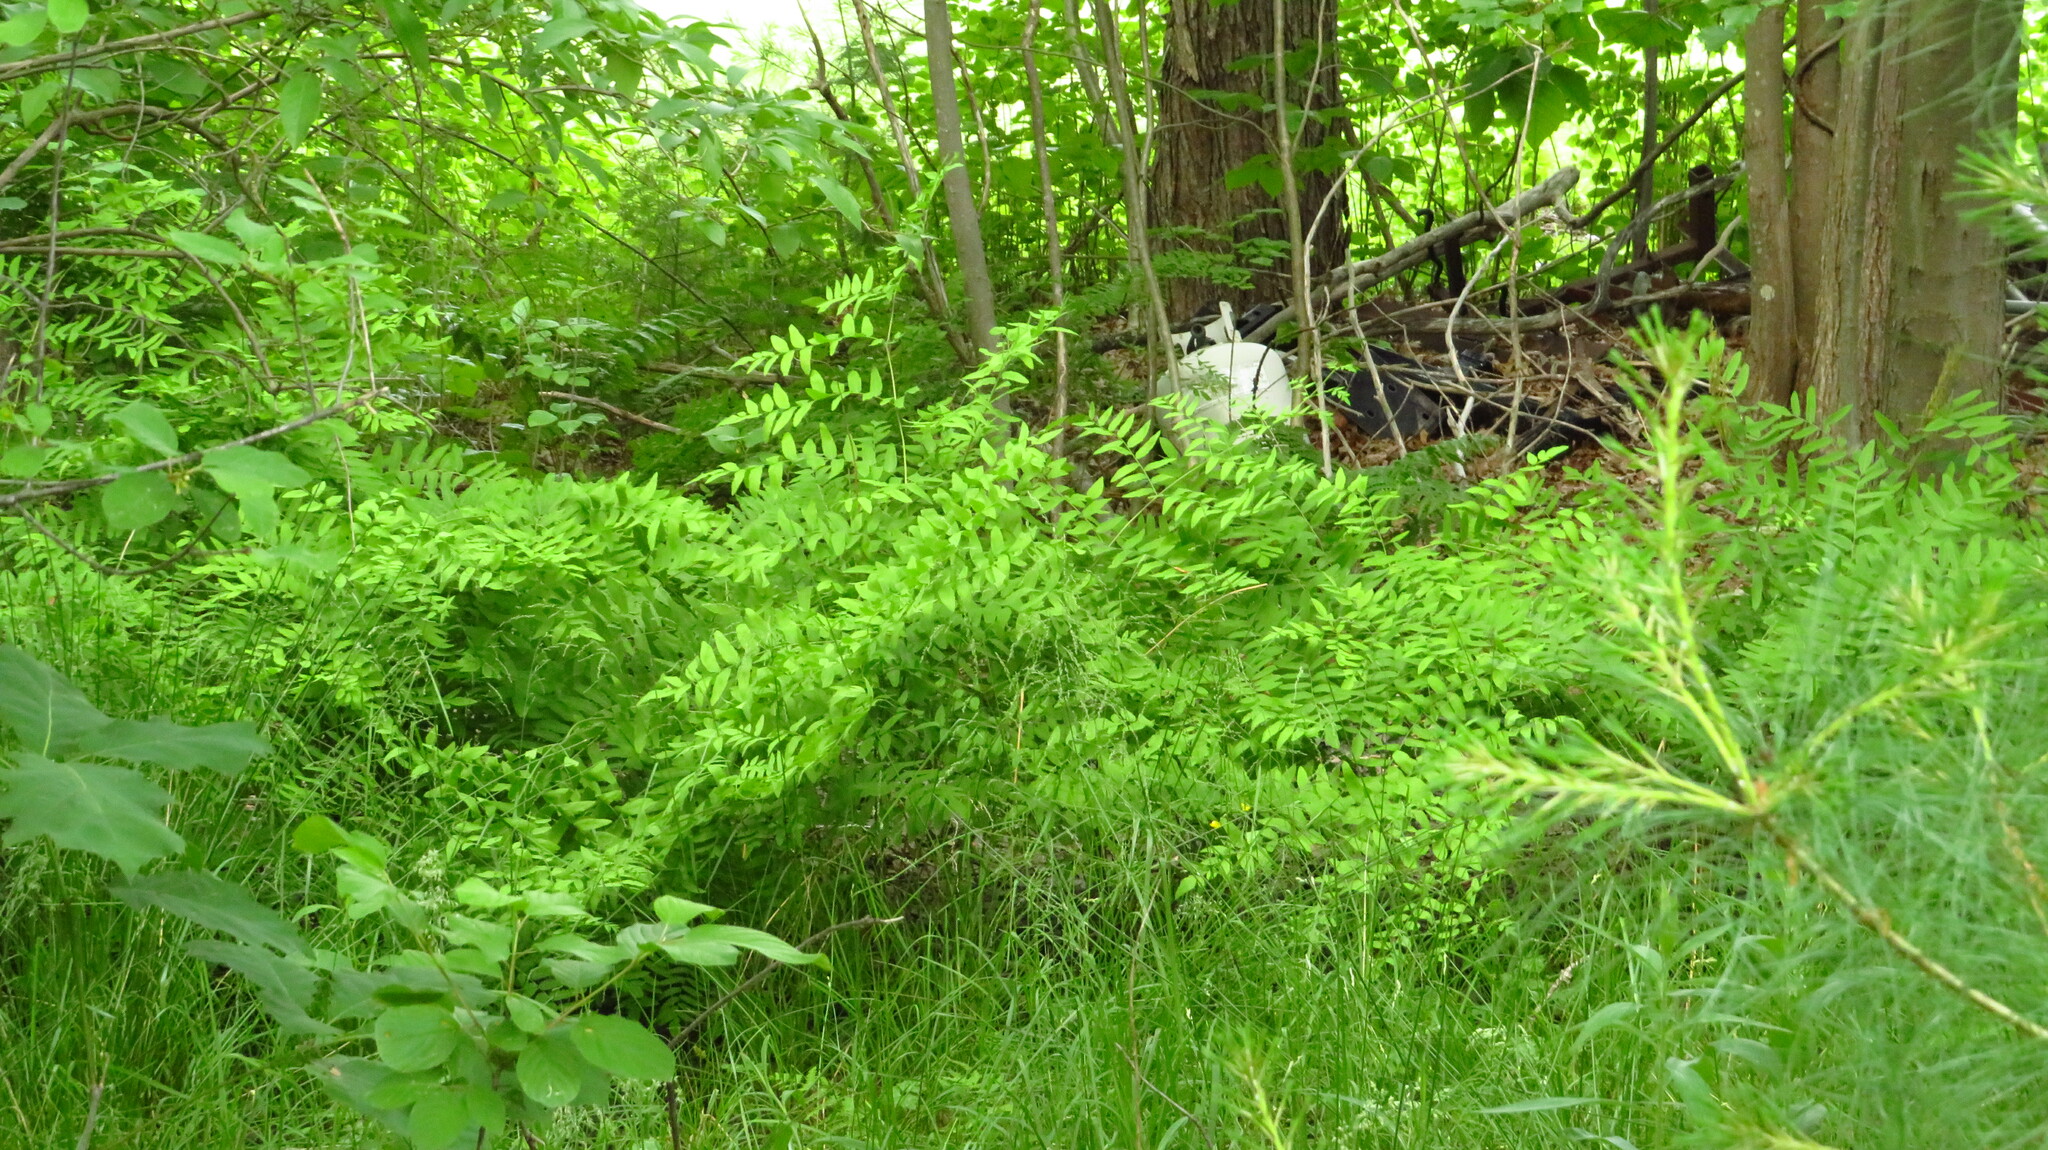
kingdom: Plantae
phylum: Tracheophyta
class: Polypodiopsida
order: Osmundales
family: Osmundaceae
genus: Osmunda
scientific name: Osmunda spectabilis
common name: American royal fern
